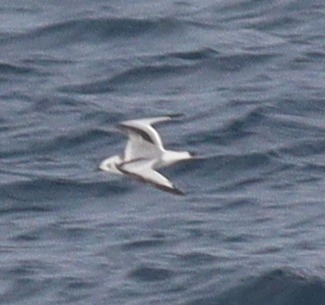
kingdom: Animalia
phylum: Chordata
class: Aves
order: Charadriiformes
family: Laridae
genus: Rissa
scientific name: Rissa tridactyla
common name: Black-legged kittiwake
